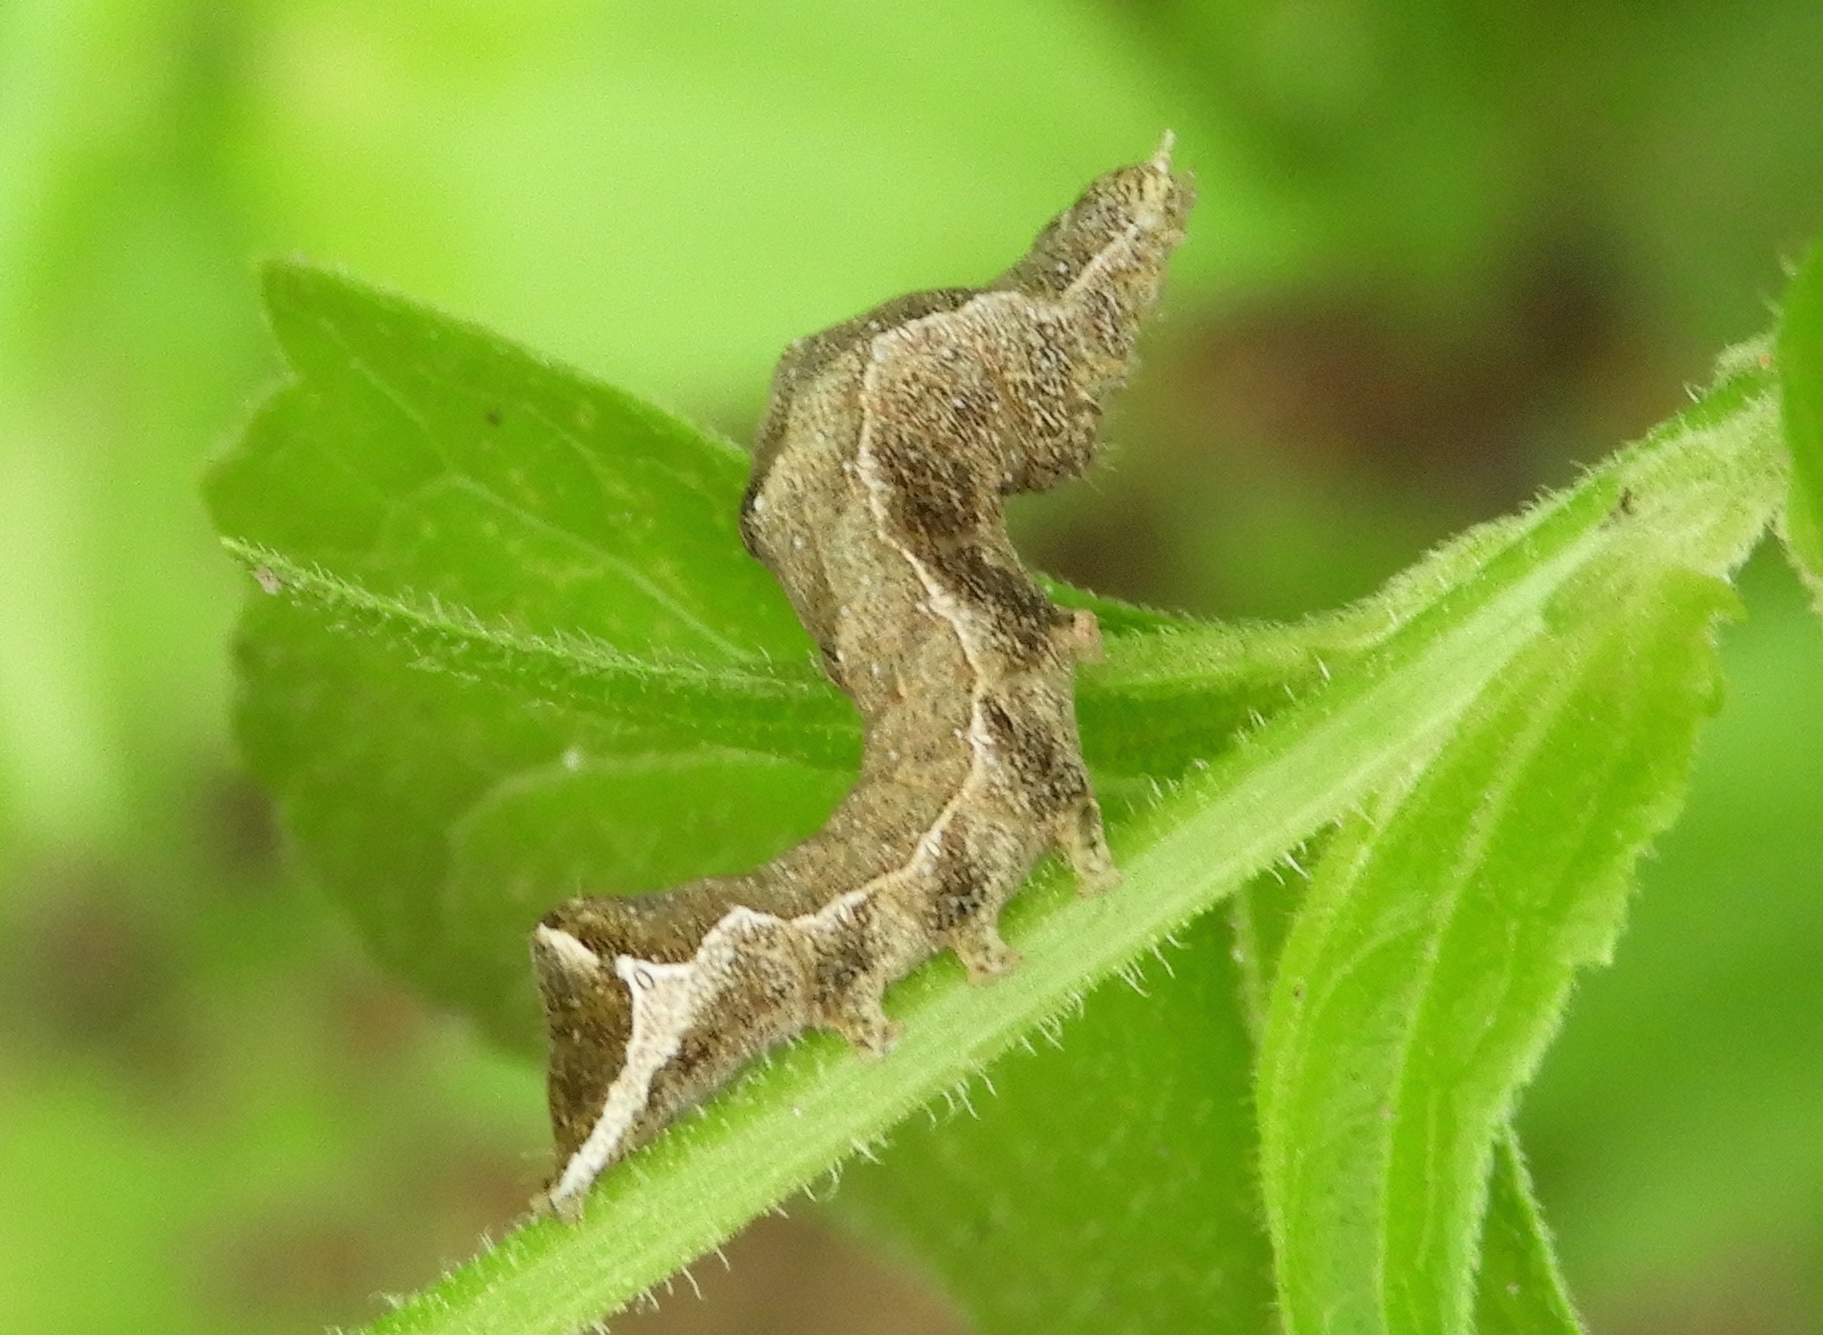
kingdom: Animalia
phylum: Arthropoda
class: Insecta
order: Lepidoptera
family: Geometridae
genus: Tornos
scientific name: Tornos
